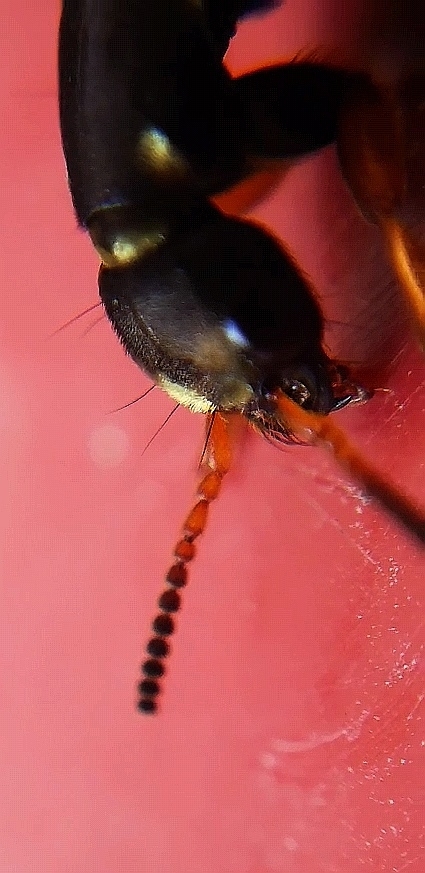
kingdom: Animalia
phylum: Arthropoda
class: Insecta
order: Coleoptera
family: Staphylinidae
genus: Staphylinus
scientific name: Staphylinus dimidiaticornis
